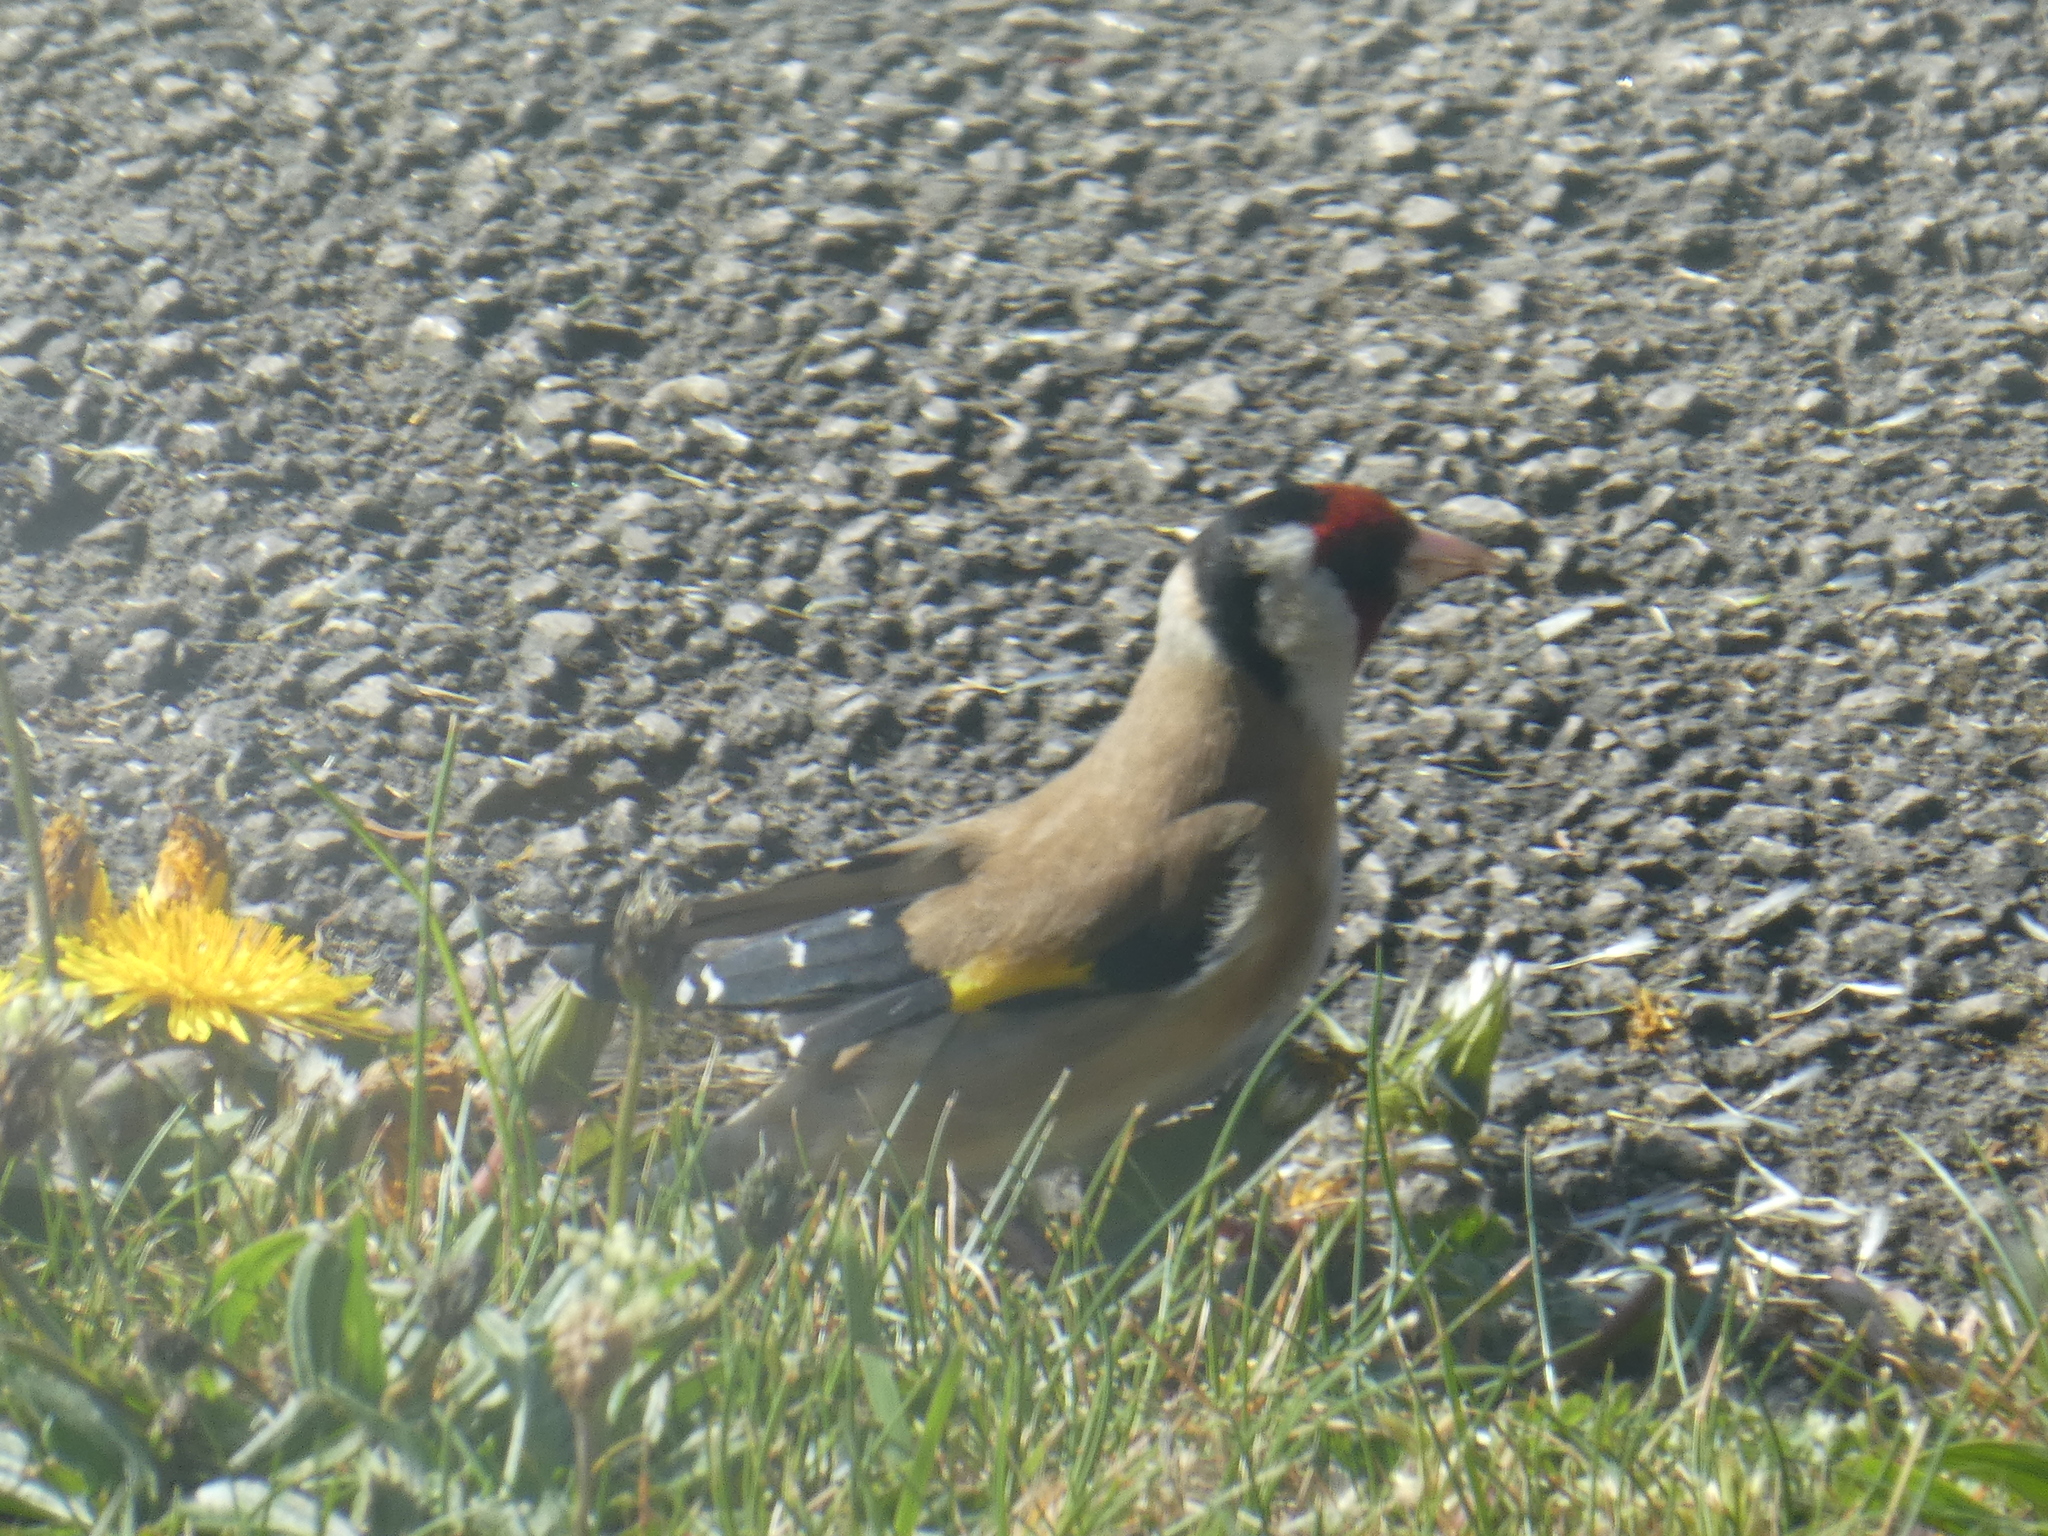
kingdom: Animalia
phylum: Chordata
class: Aves
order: Passeriformes
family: Fringillidae
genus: Carduelis
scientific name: Carduelis carduelis
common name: European goldfinch
